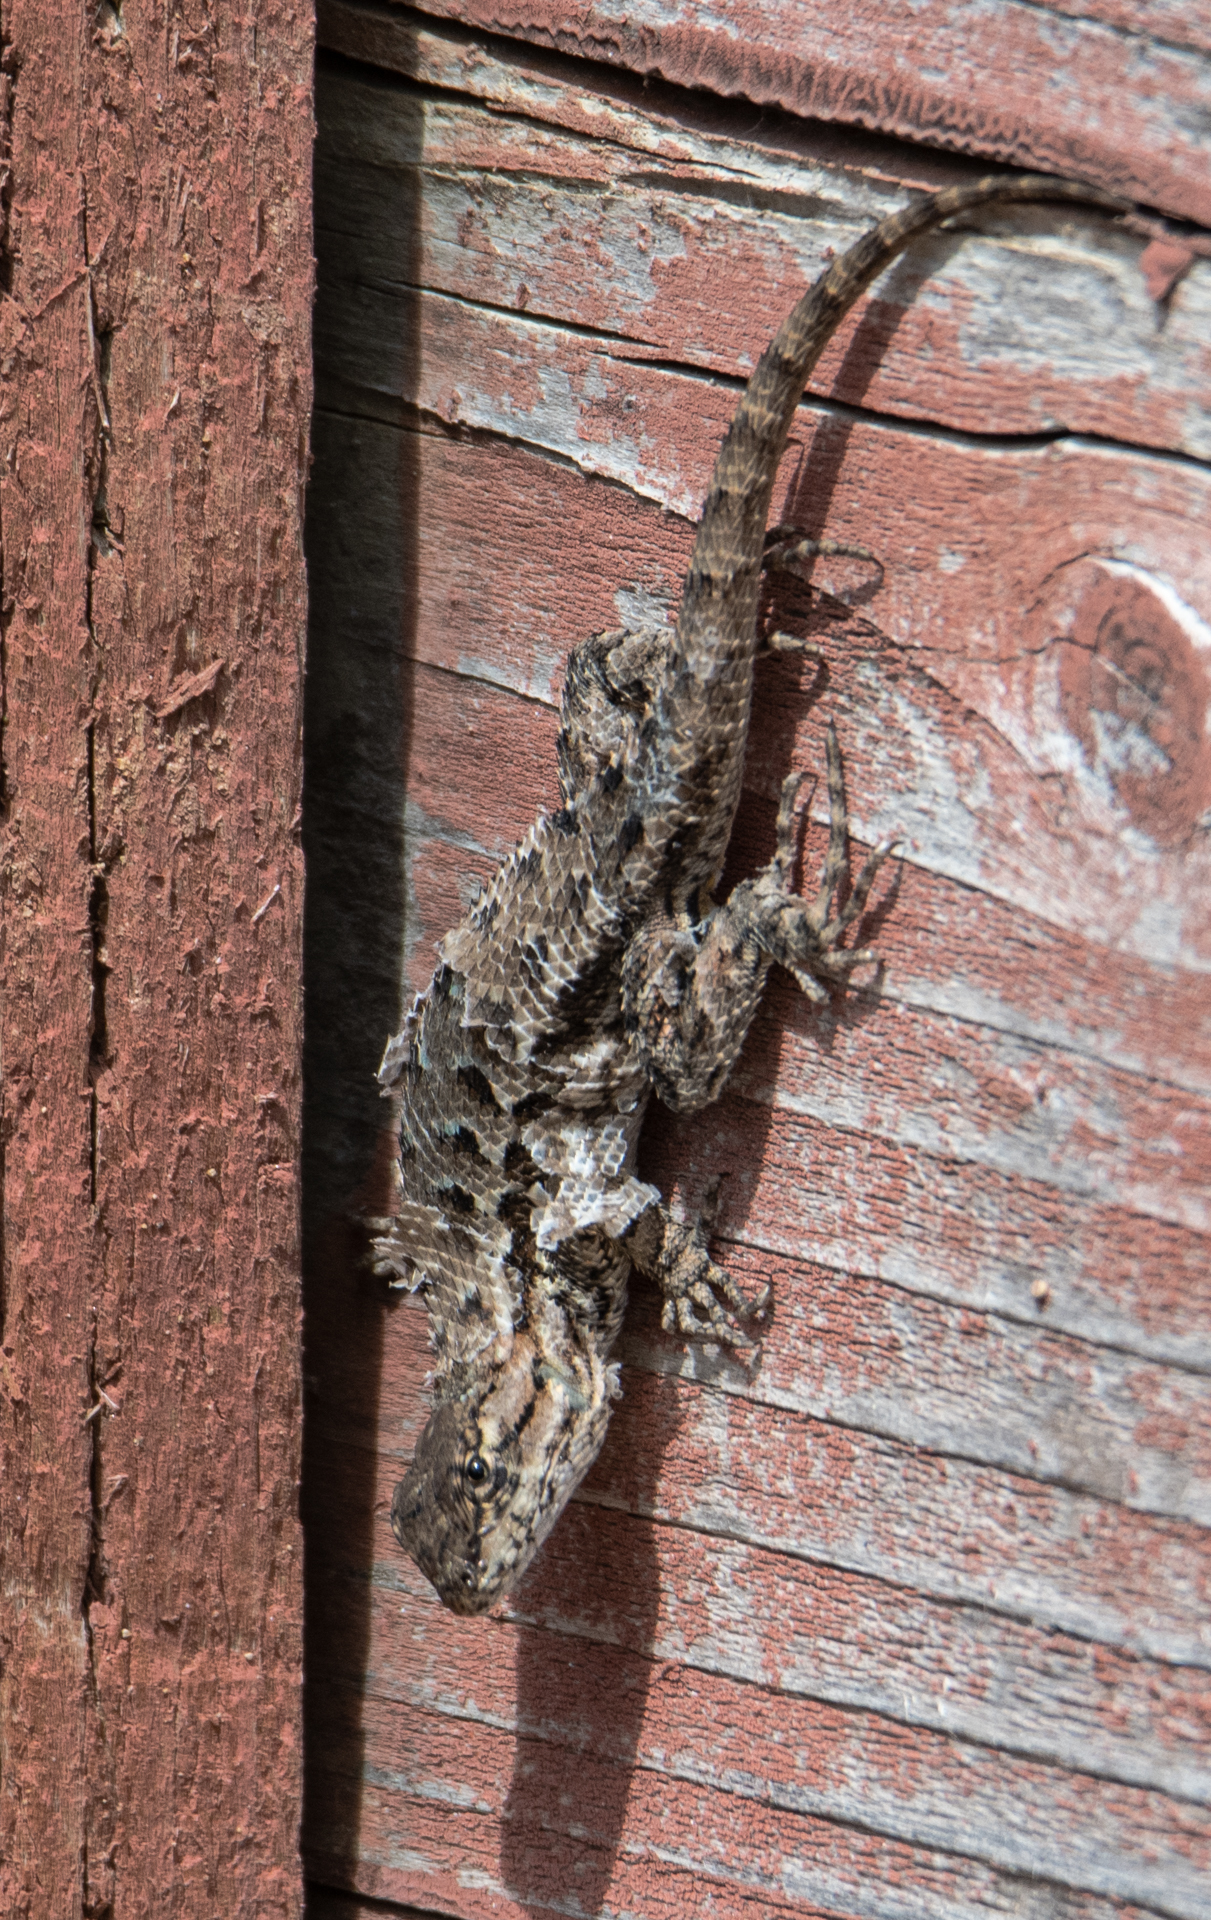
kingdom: Animalia
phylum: Chordata
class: Squamata
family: Phrynosomatidae
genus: Sceloporus
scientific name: Sceloporus occidentalis
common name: Western fence lizard
